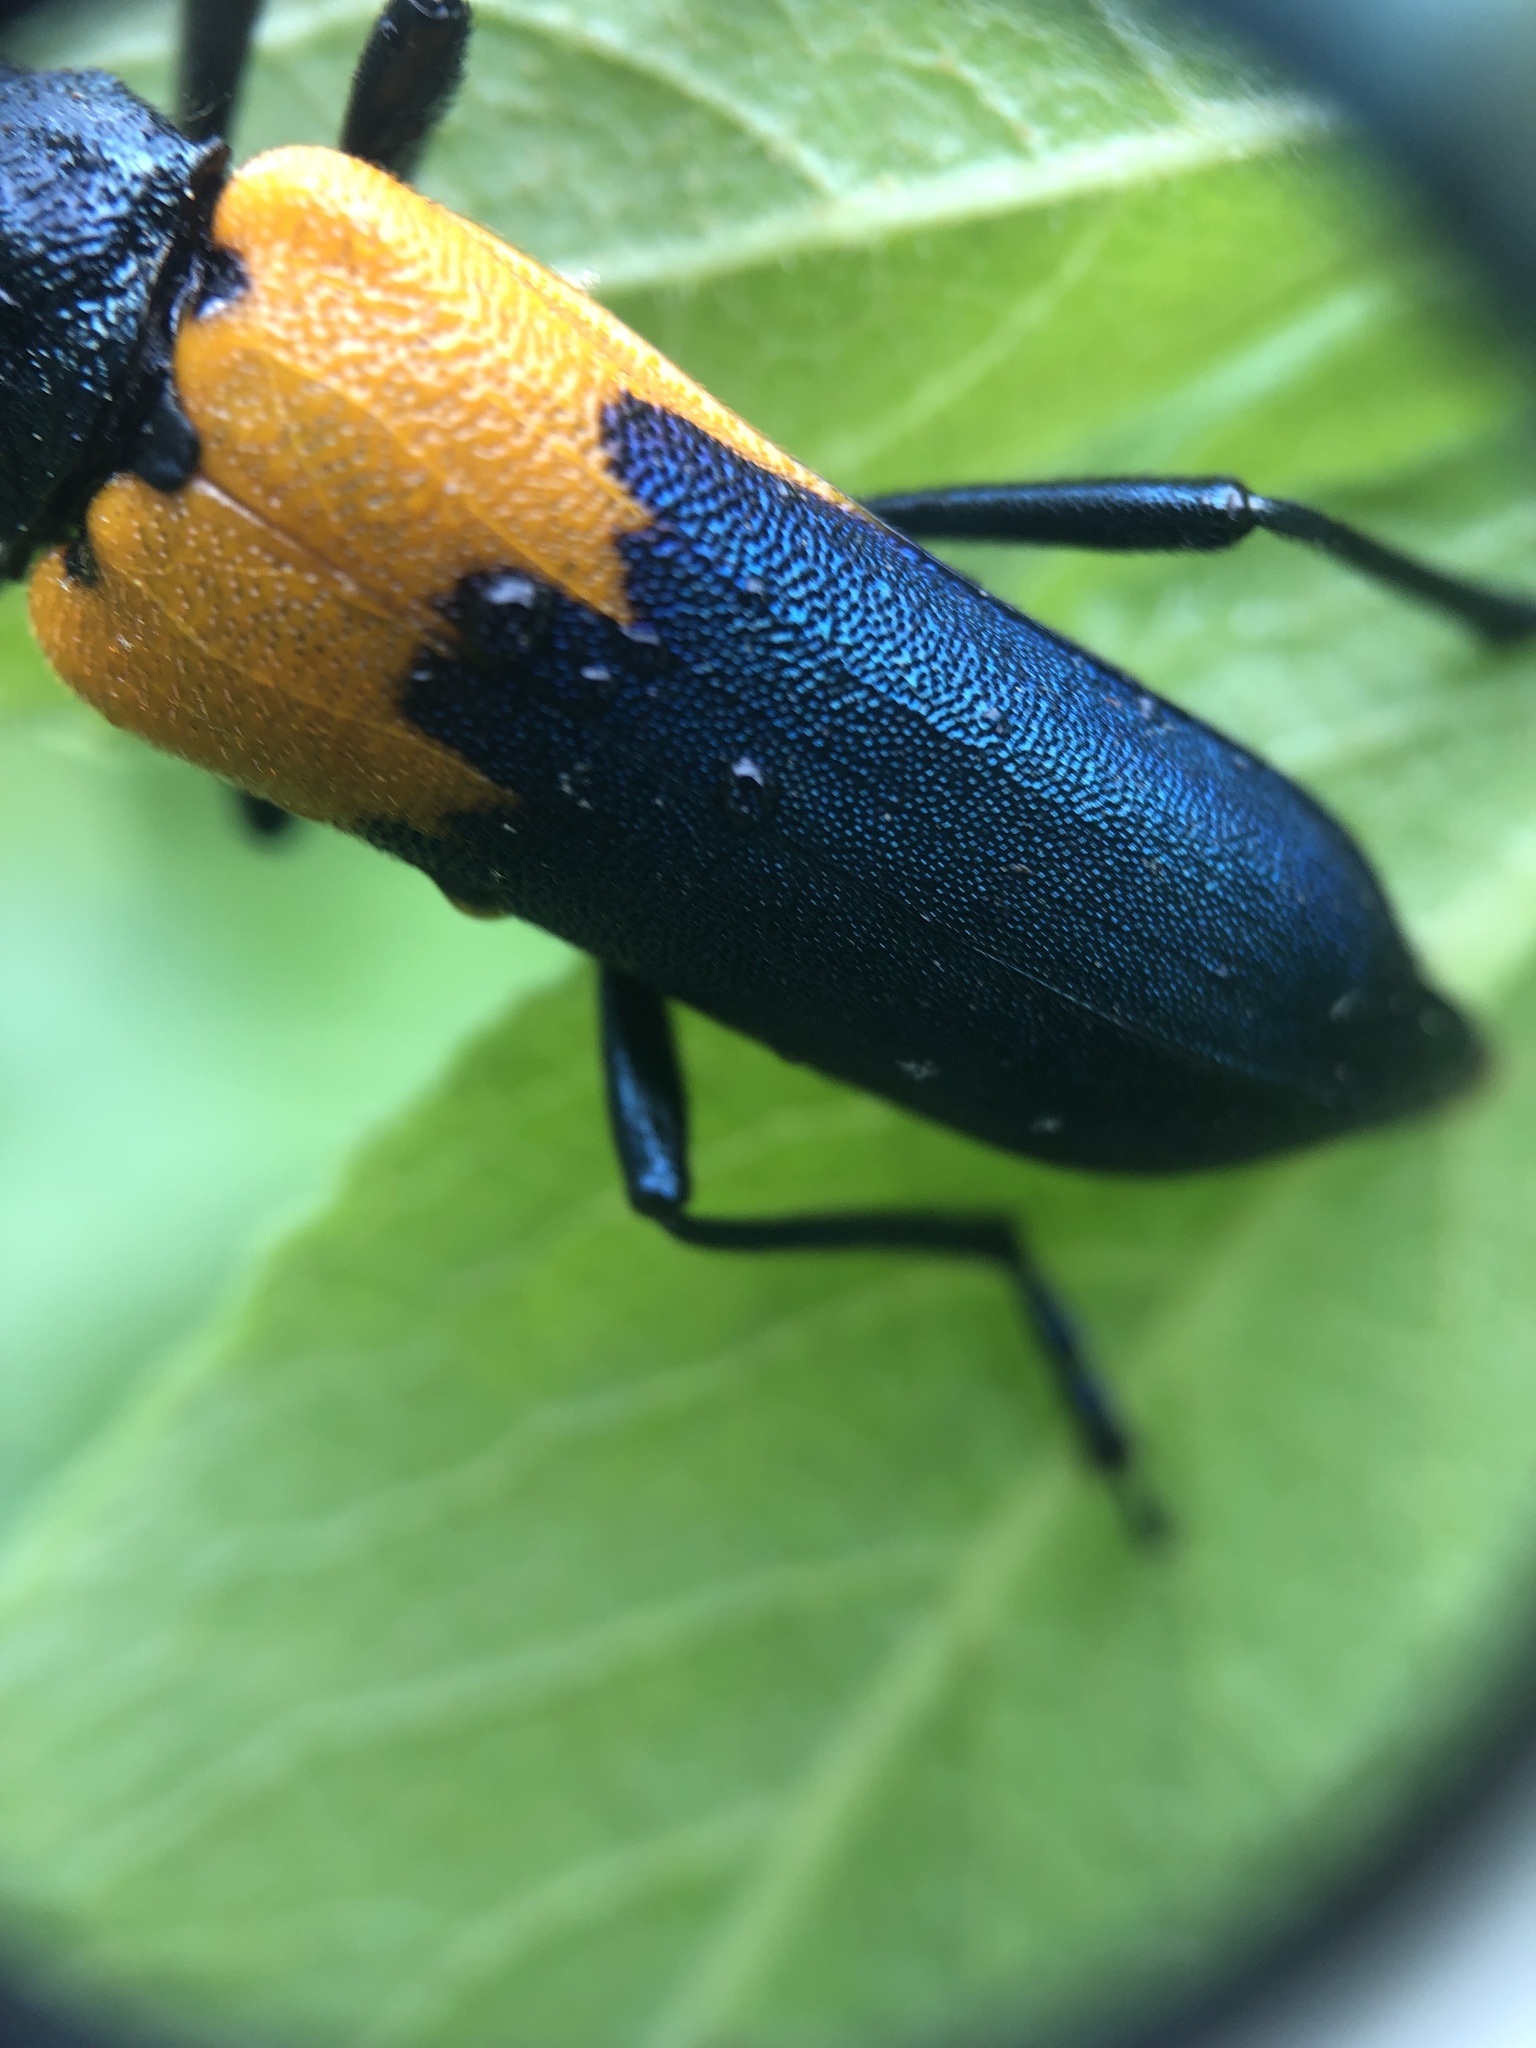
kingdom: Animalia
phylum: Arthropoda
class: Insecta
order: Coleoptera
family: Cerambycidae
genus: Desmocerus
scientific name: Desmocerus palliatus
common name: Eastern elderberry borer
